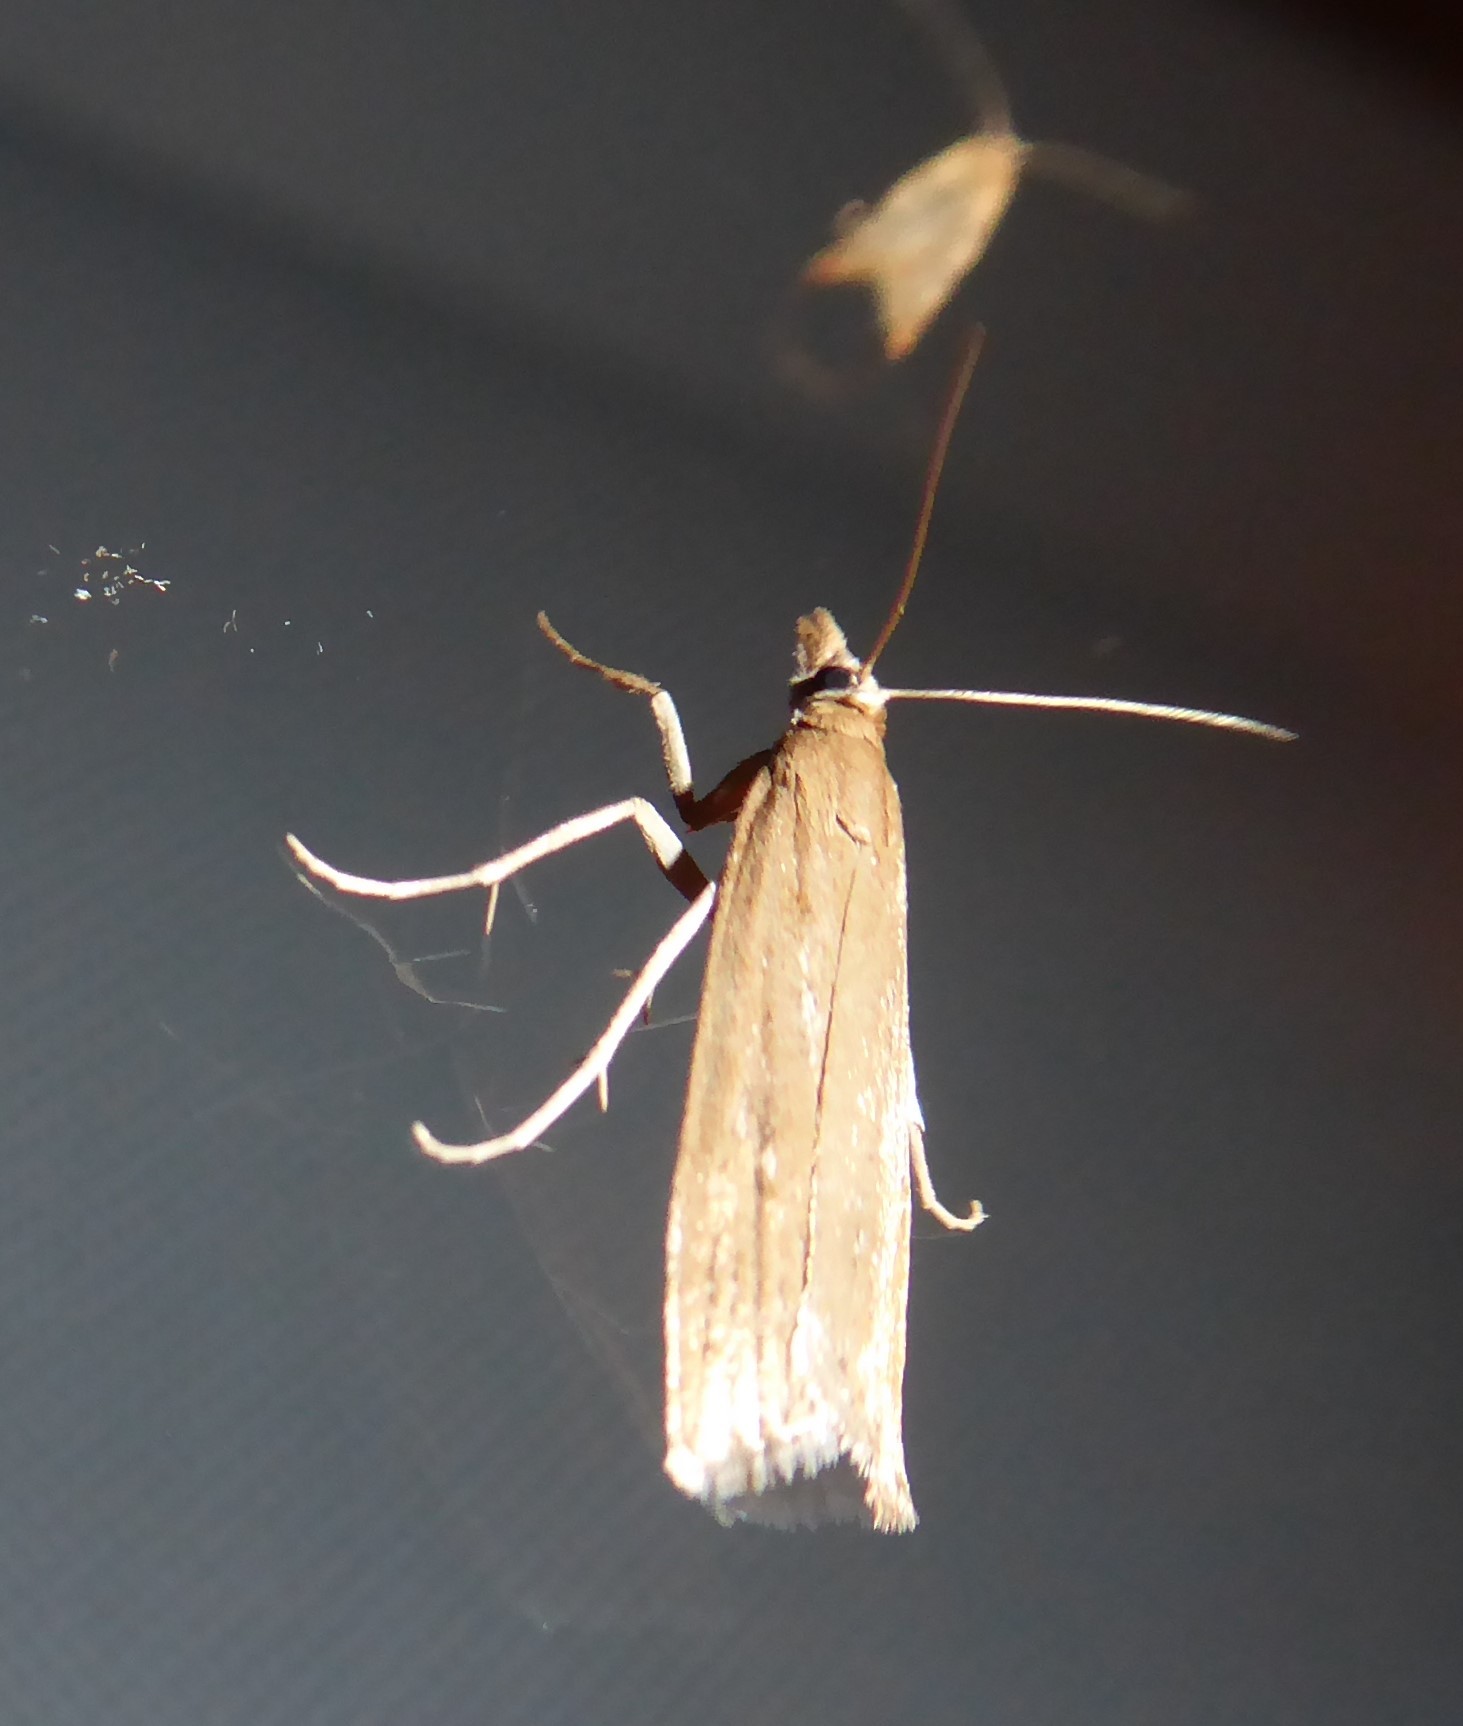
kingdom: Animalia
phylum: Arthropoda
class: Insecta
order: Lepidoptera
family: Crambidae
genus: Eudonia
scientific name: Eudonia sabulosella
